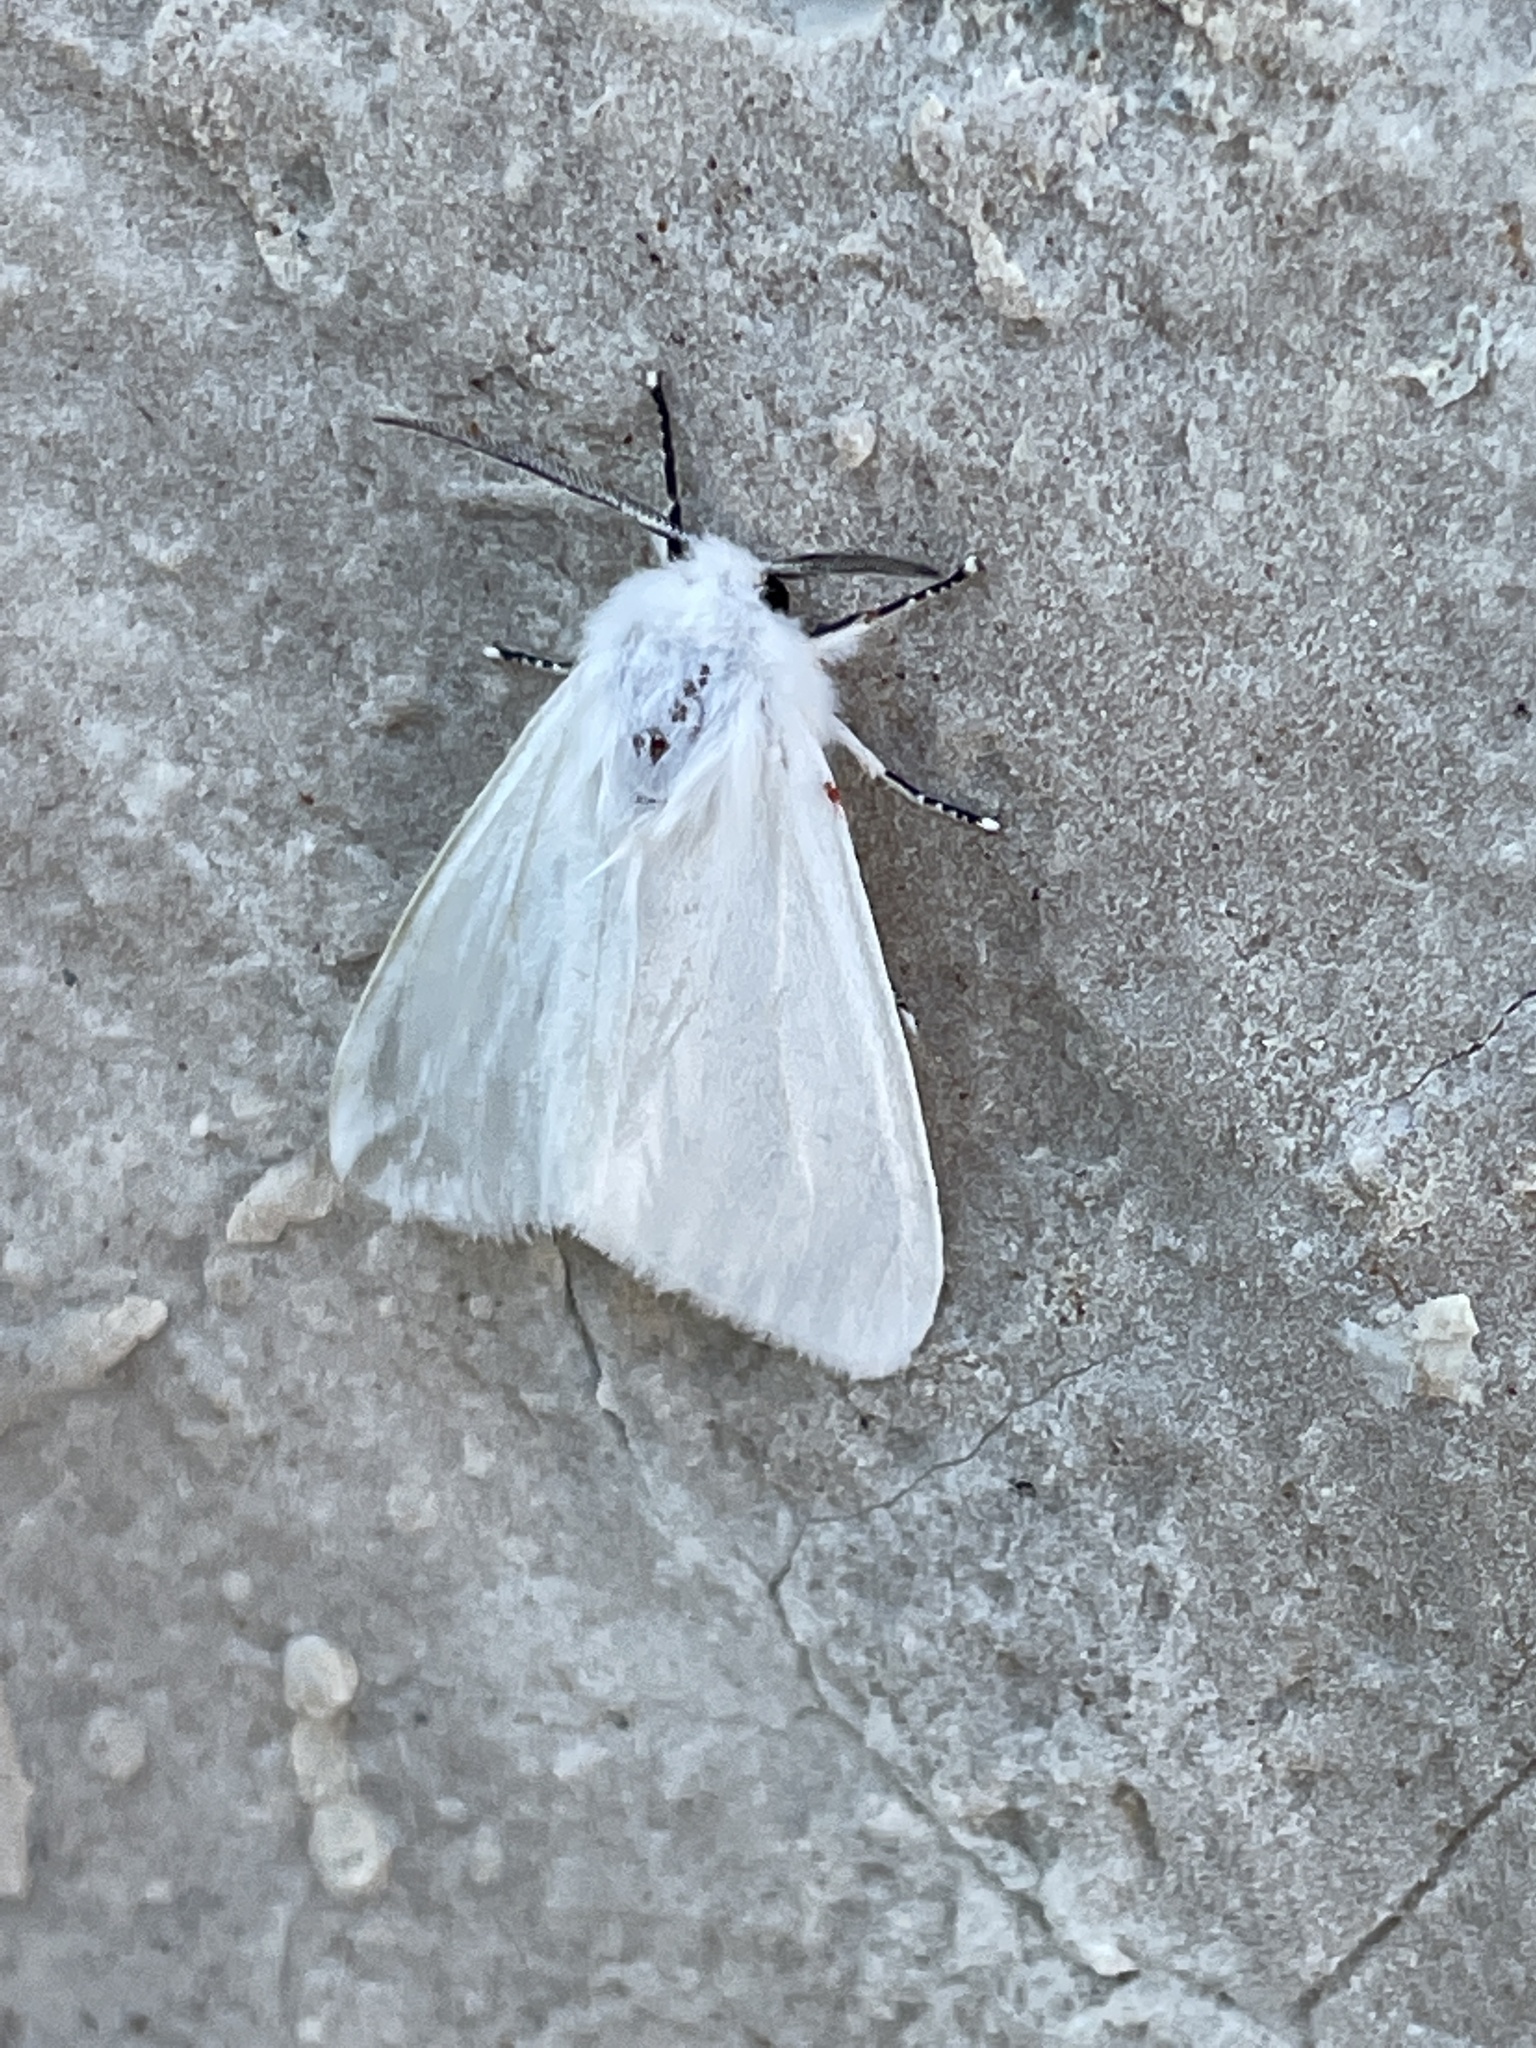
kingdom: Animalia
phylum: Arthropoda
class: Insecta
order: Lepidoptera
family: Erebidae
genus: Leucoma
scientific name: Leucoma salicis
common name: White satin moth
